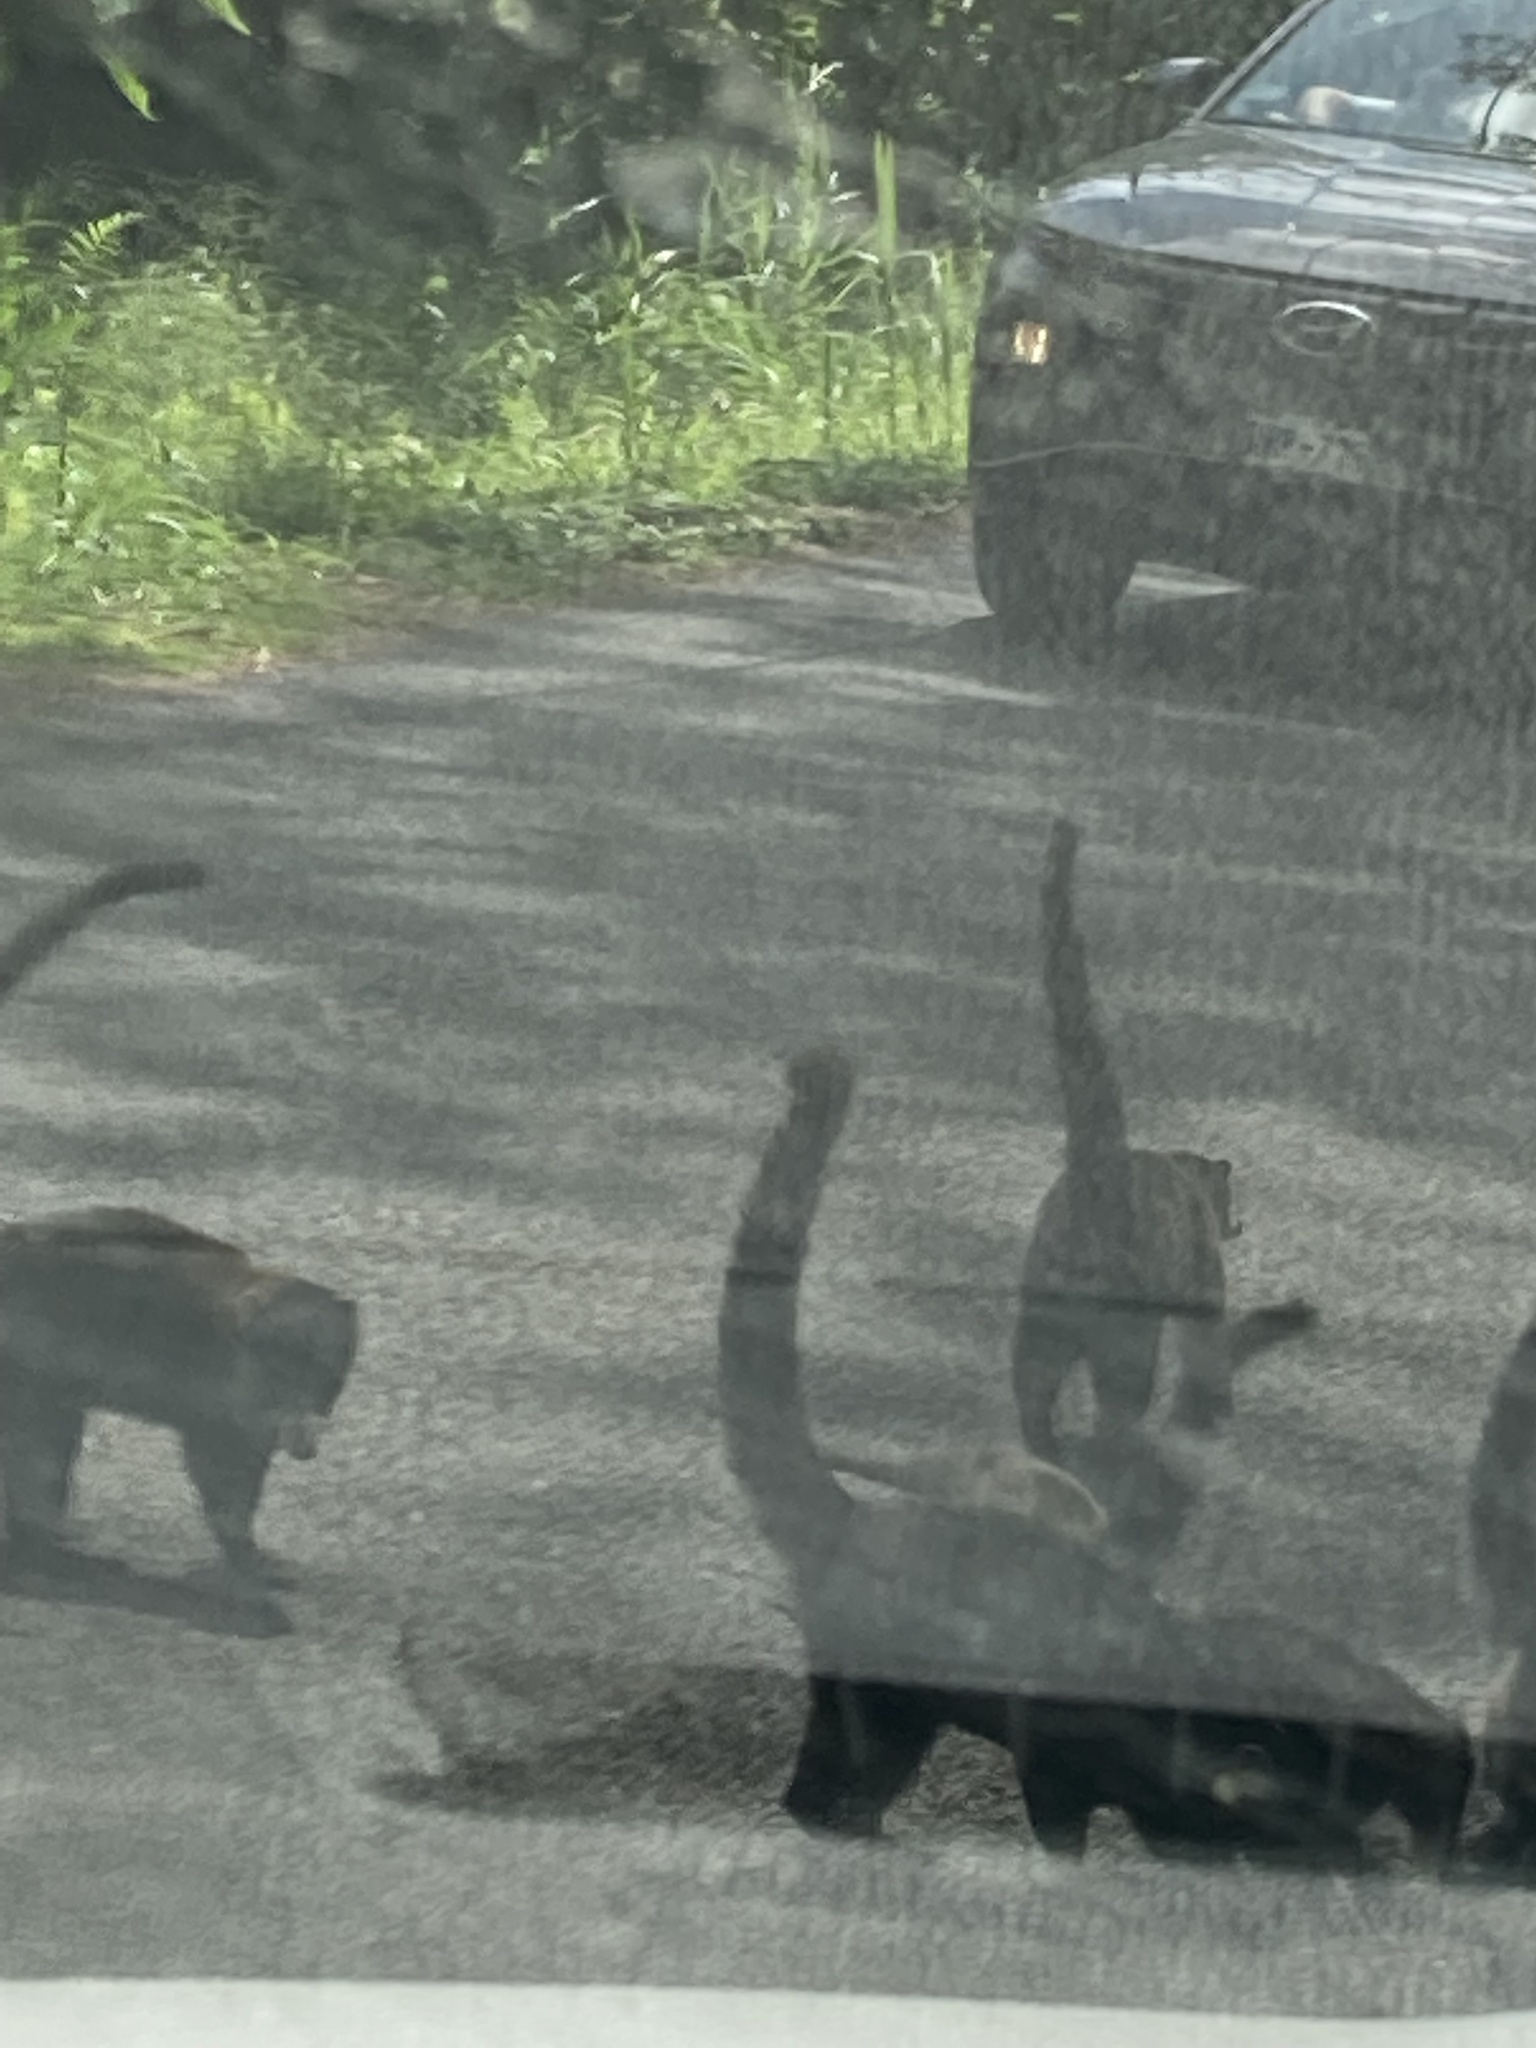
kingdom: Animalia
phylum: Chordata
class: Mammalia
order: Carnivora
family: Procyonidae
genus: Nasua
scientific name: Nasua narica
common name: White-nosed coati
